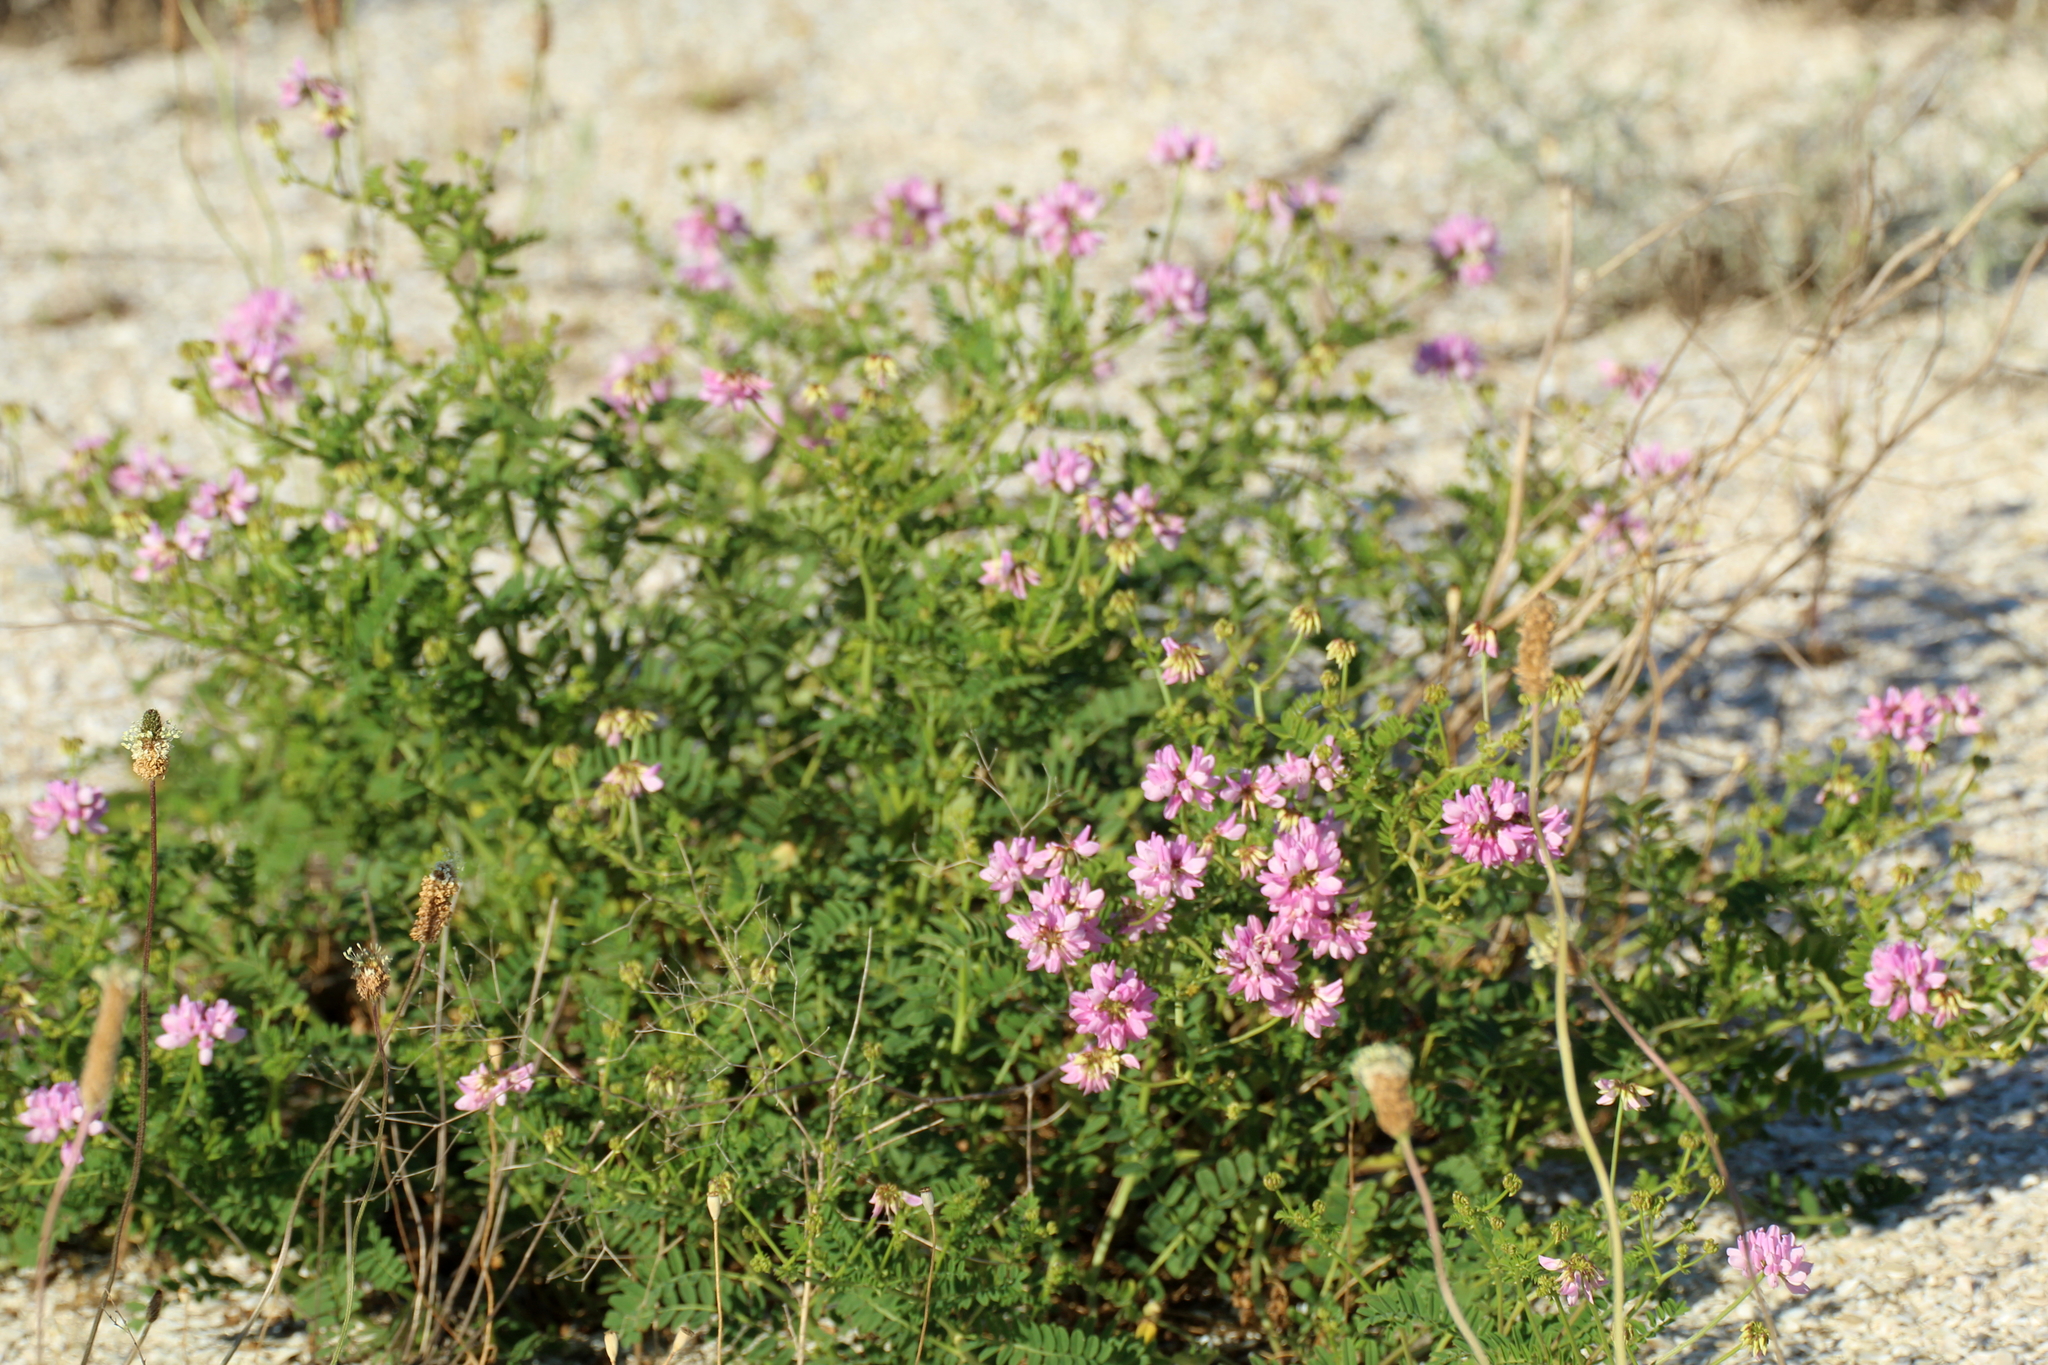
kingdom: Plantae
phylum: Tracheophyta
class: Magnoliopsida
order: Fabales
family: Fabaceae
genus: Coronilla
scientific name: Coronilla varia
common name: Crownvetch
